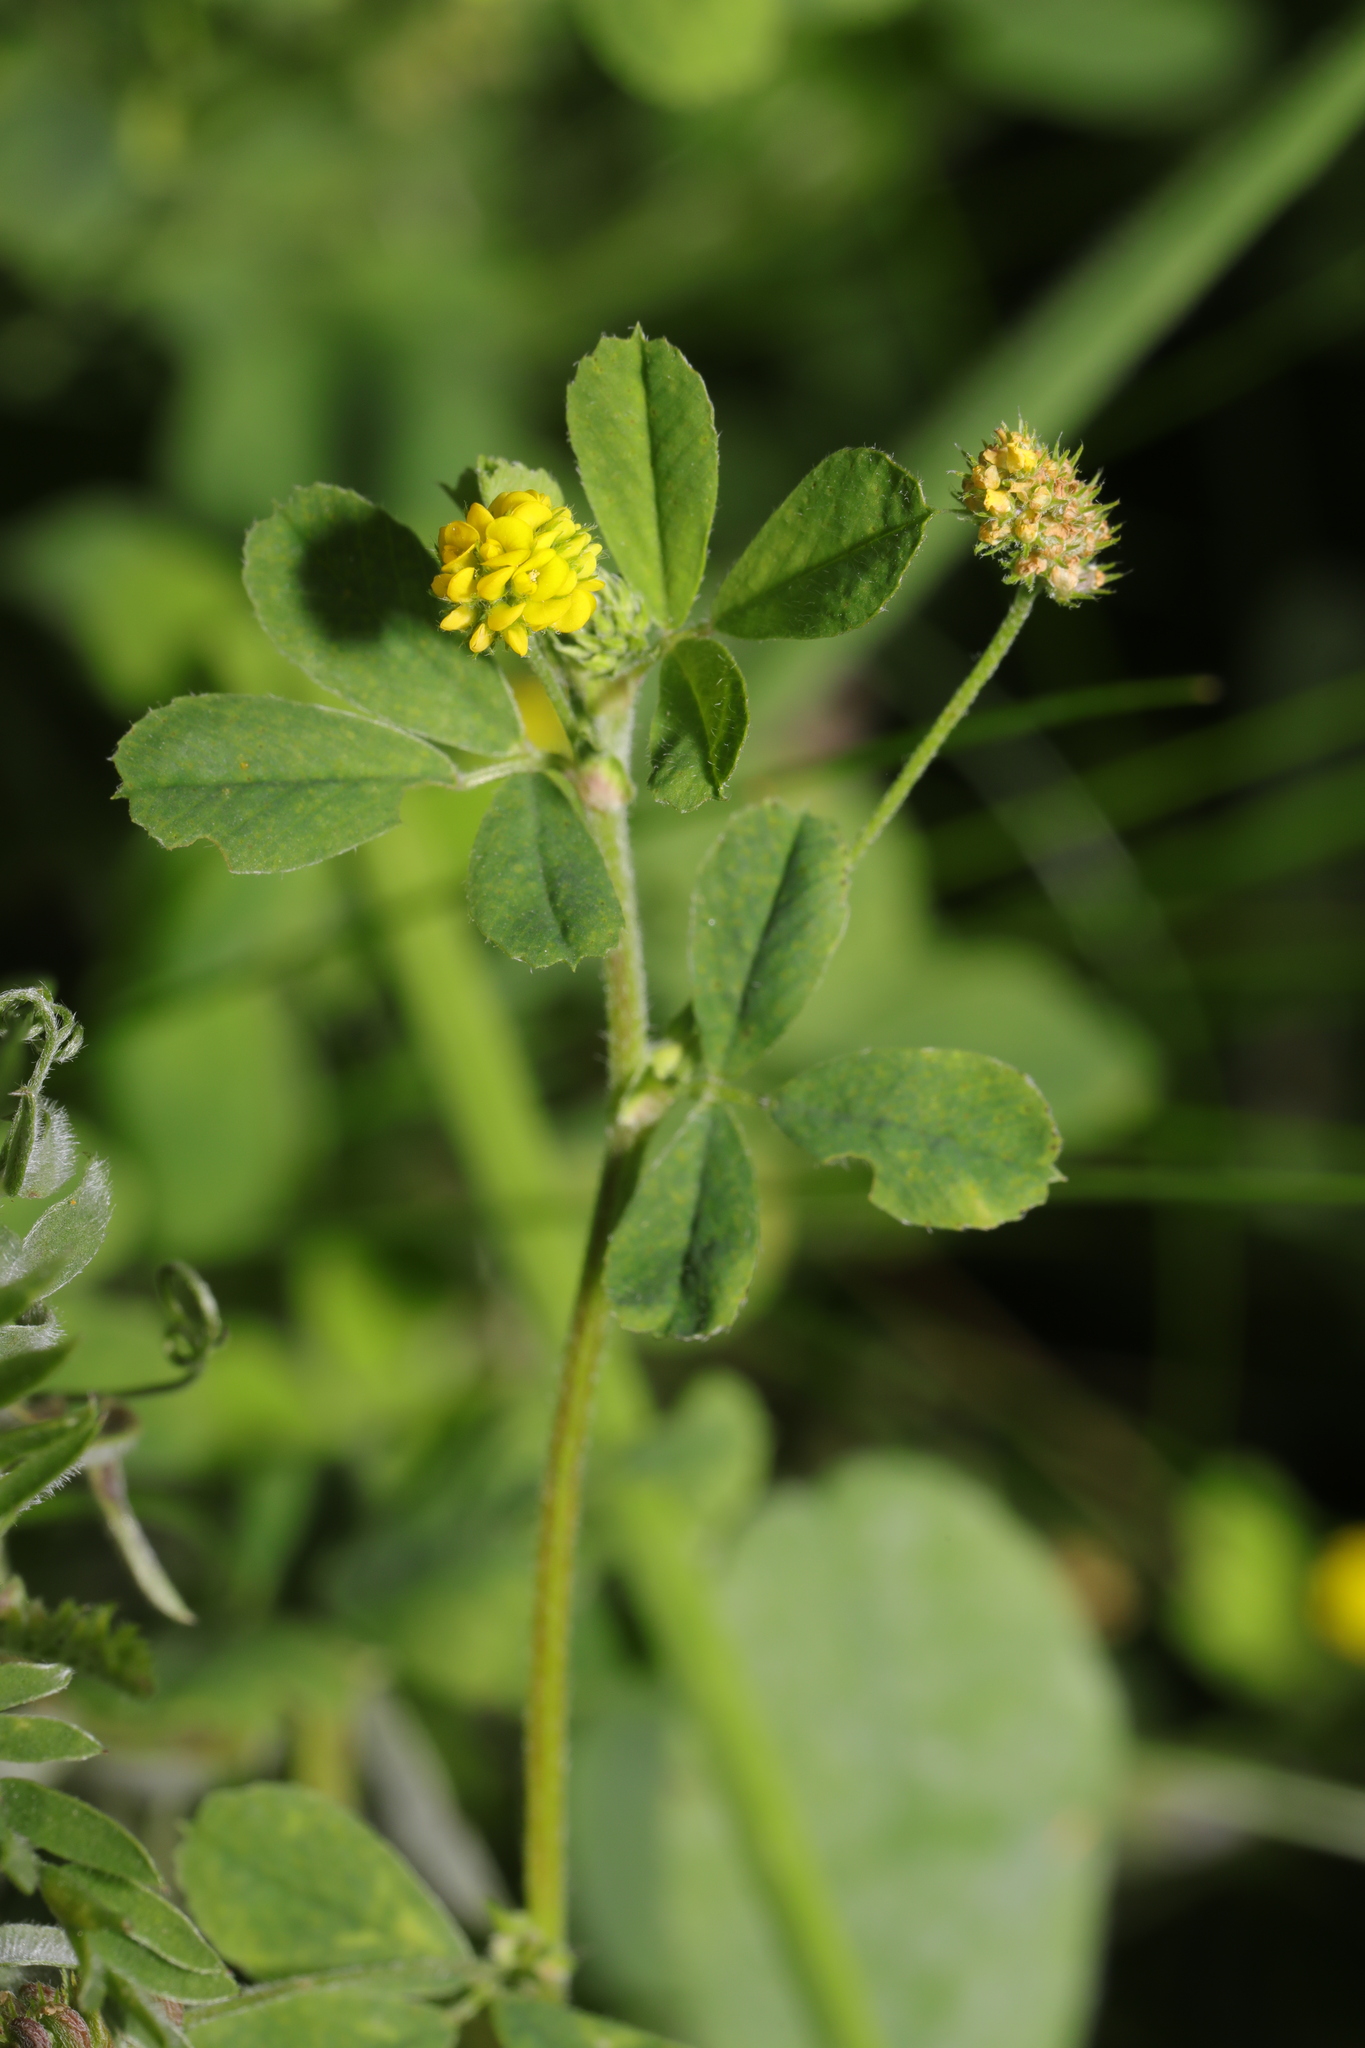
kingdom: Plantae
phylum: Tracheophyta
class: Magnoliopsida
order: Fabales
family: Fabaceae
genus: Medicago
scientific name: Medicago lupulina
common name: Black medick
